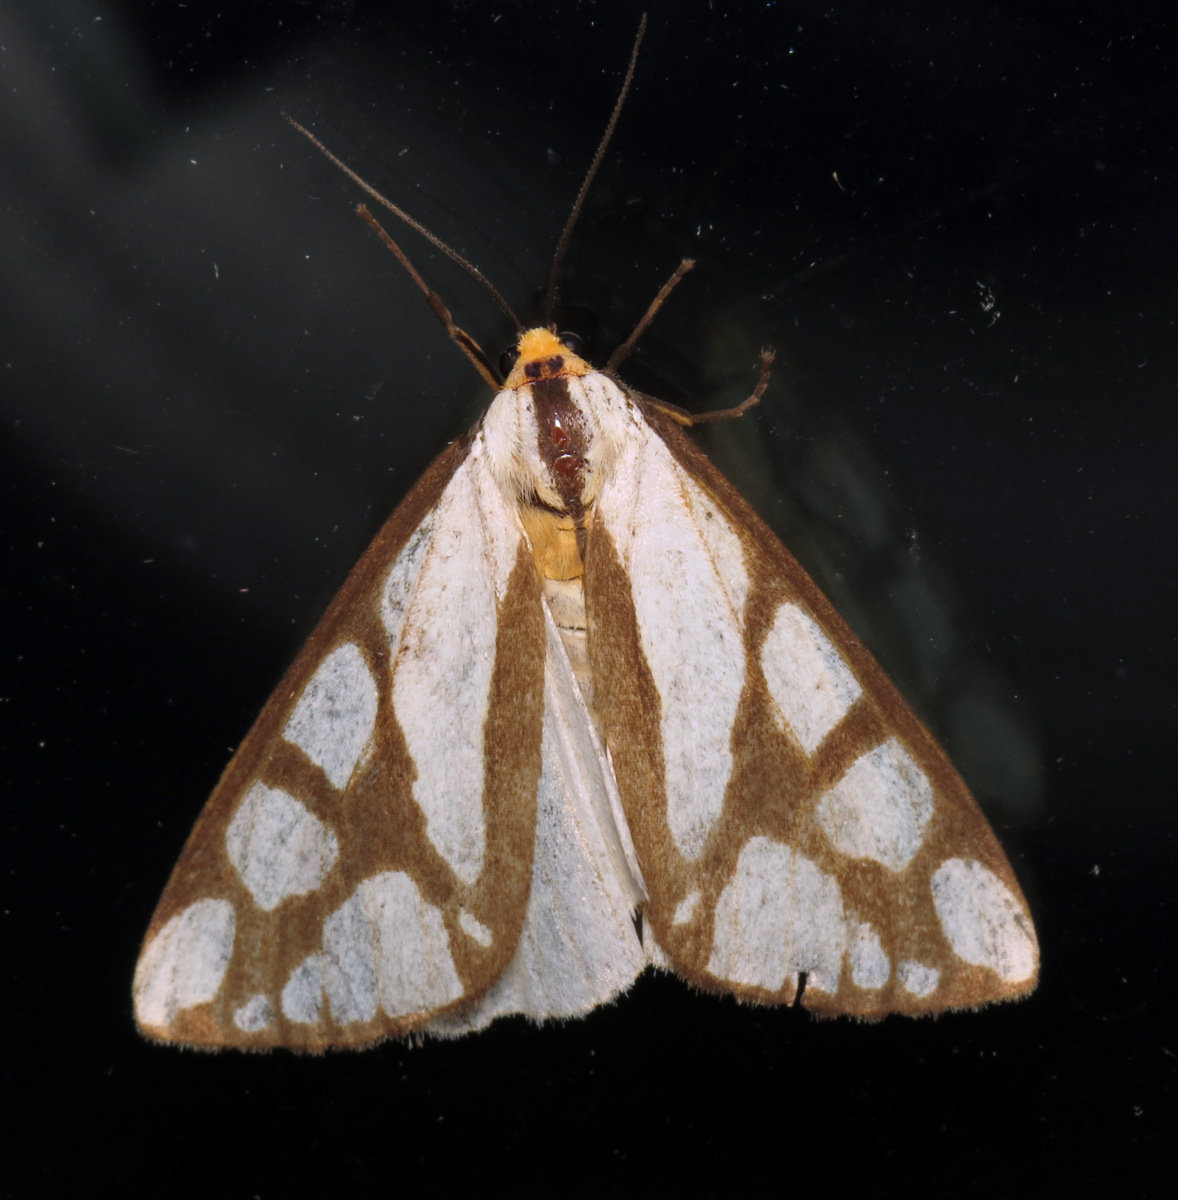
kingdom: Animalia
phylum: Arthropoda
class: Insecta
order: Lepidoptera
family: Erebidae
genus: Haploa
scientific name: Haploa reversa
